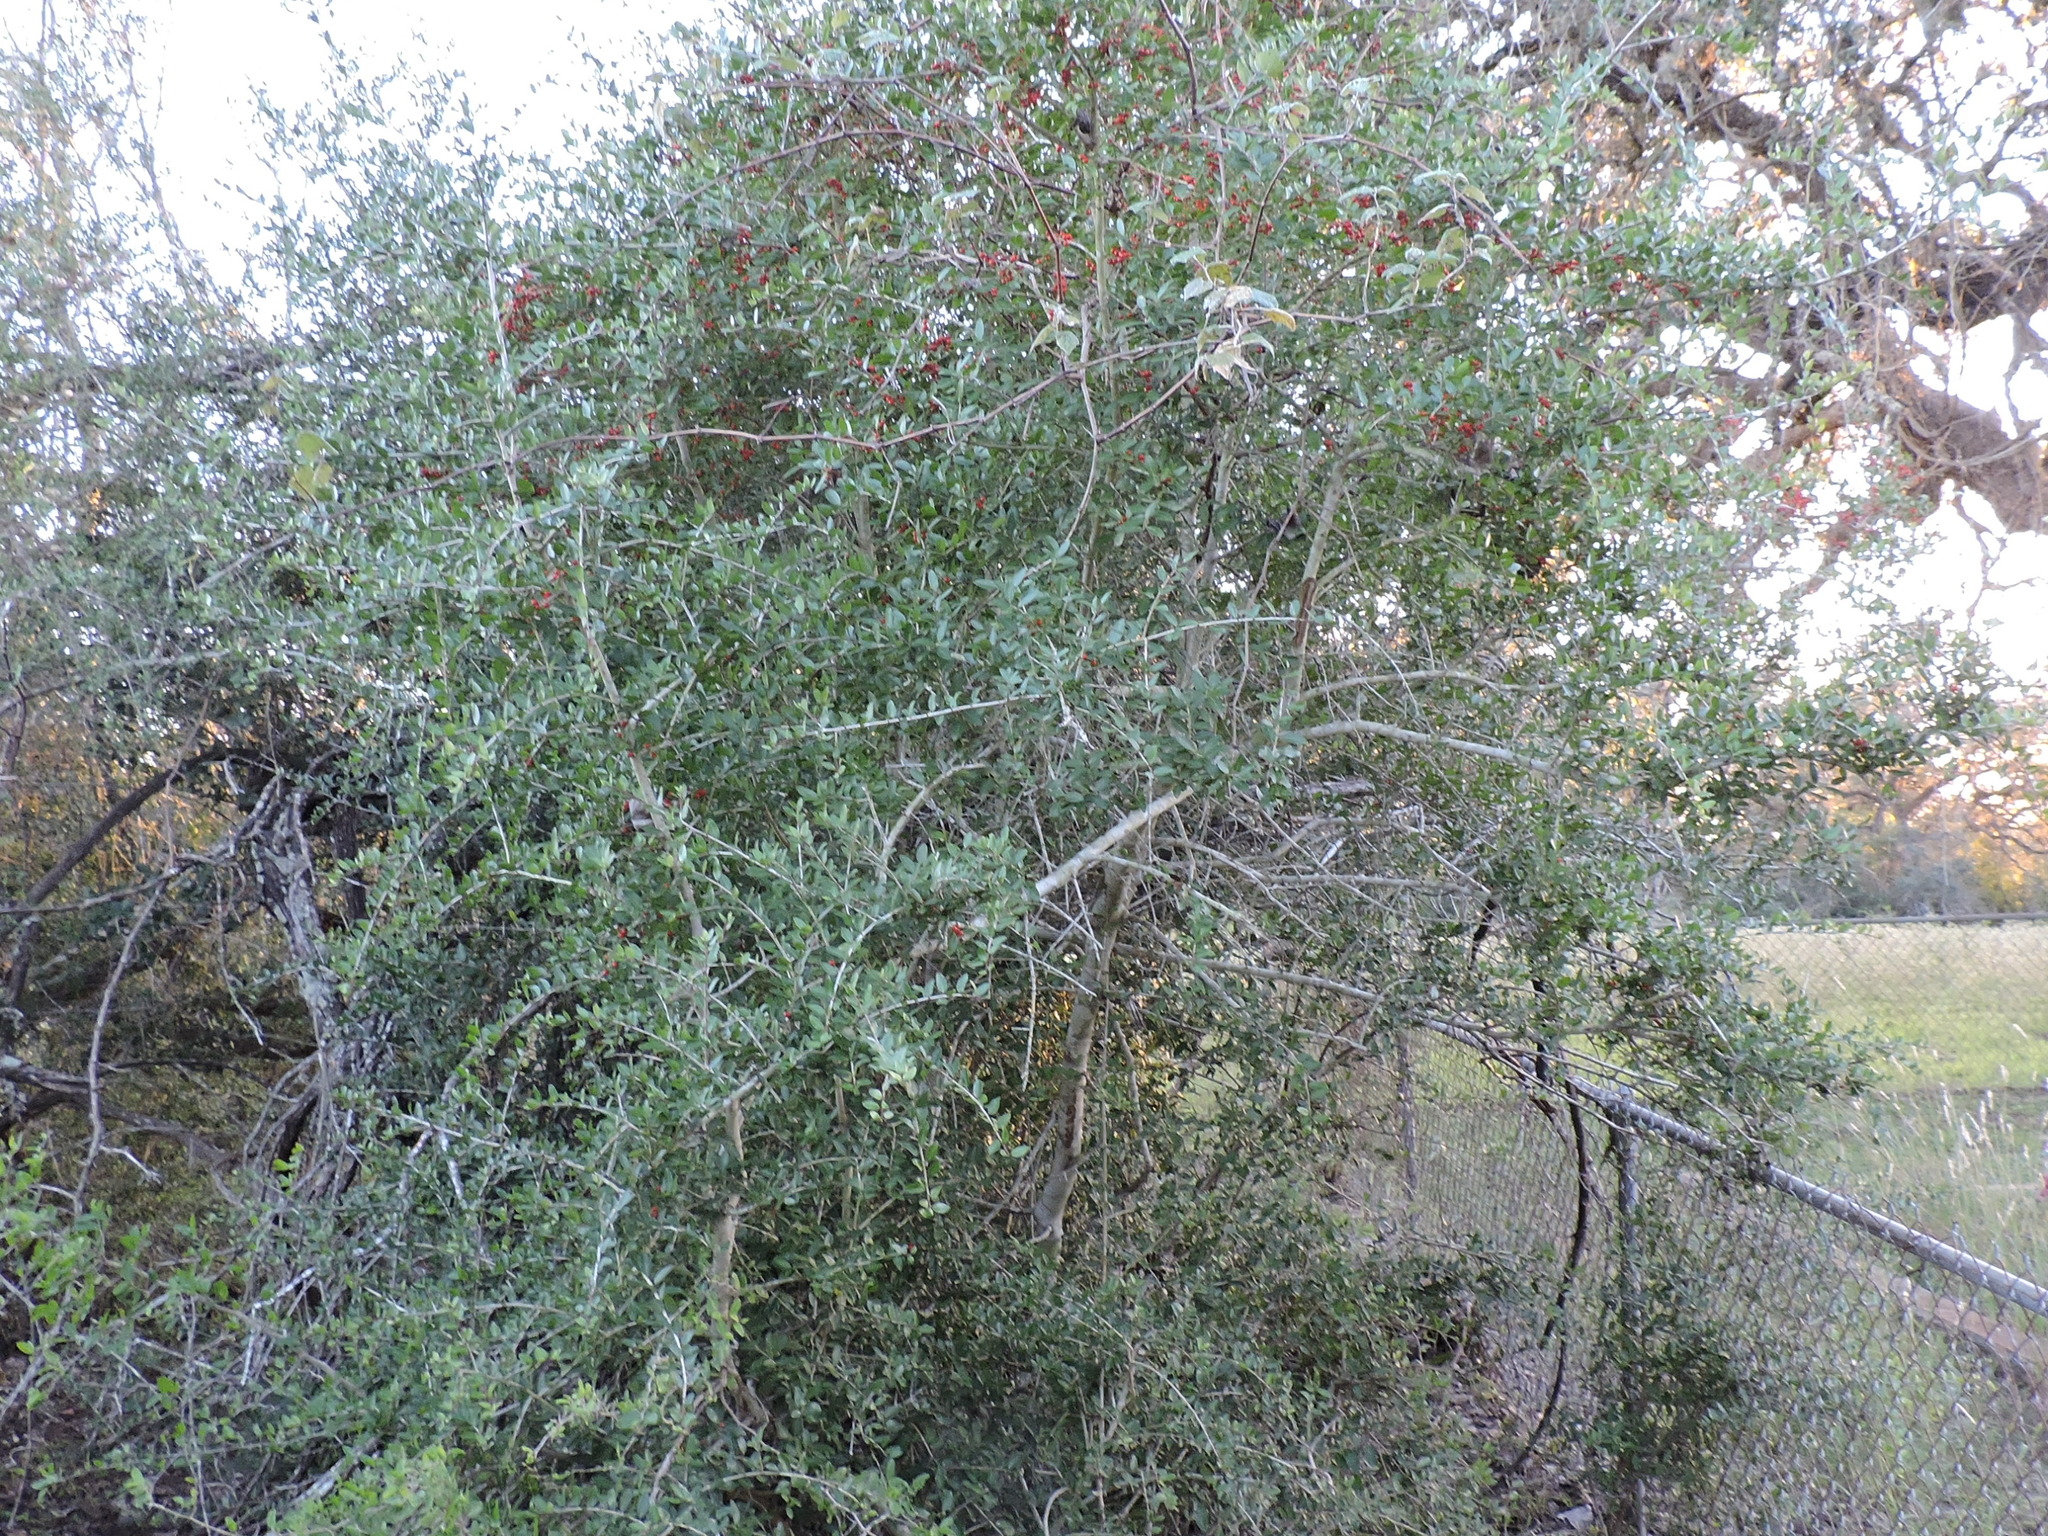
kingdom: Plantae
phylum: Tracheophyta
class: Magnoliopsida
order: Aquifoliales
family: Aquifoliaceae
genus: Ilex
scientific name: Ilex vomitoria
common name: Yaupon holly
